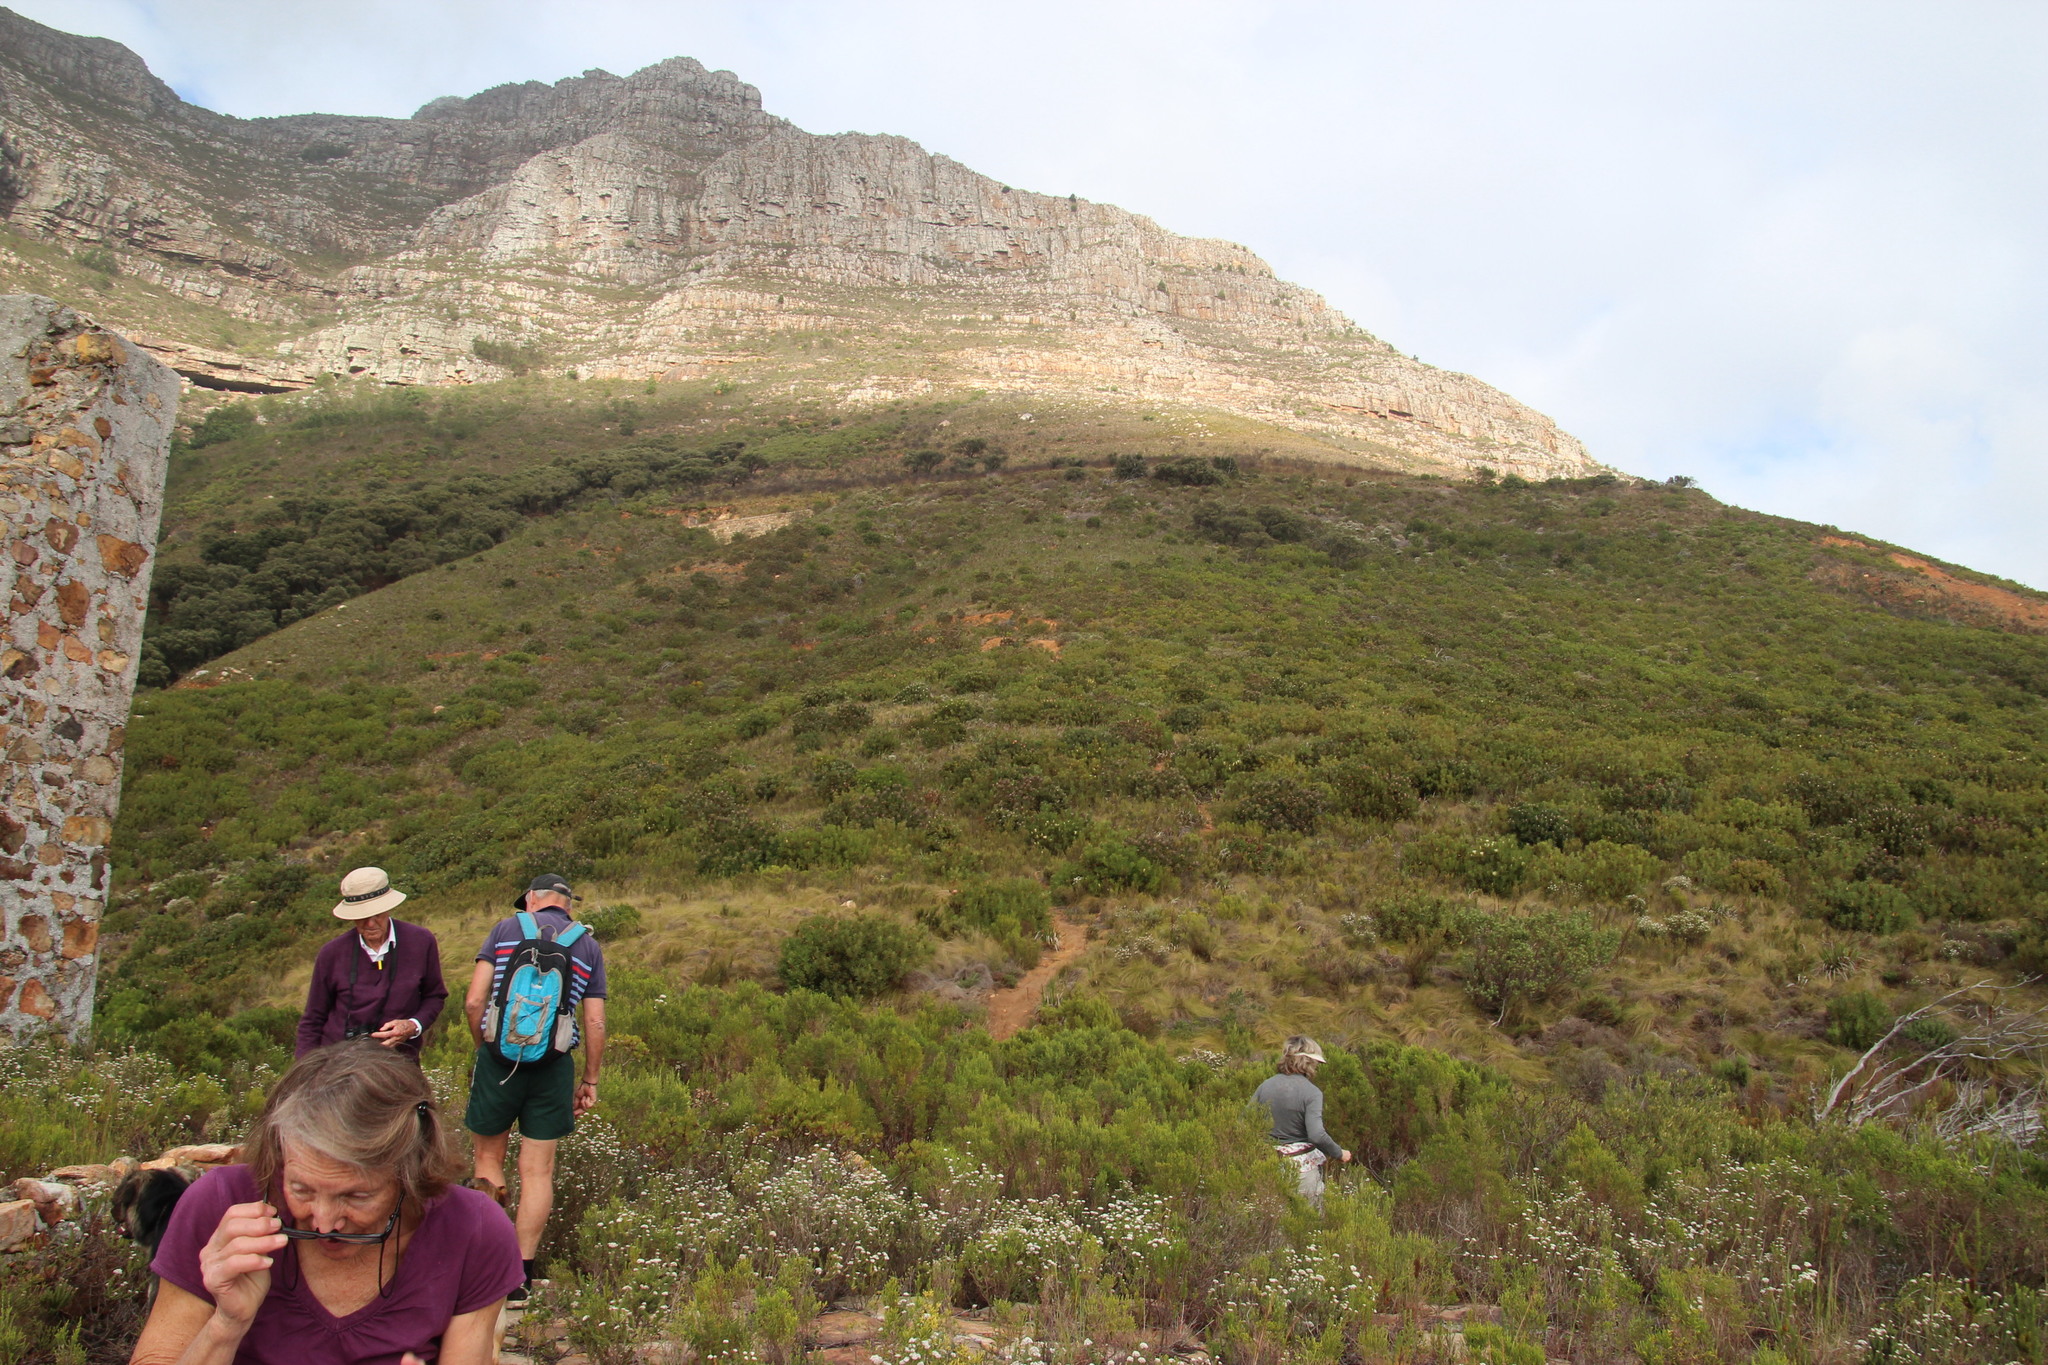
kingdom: Plantae
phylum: Tracheophyta
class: Magnoliopsida
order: Proteales
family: Proteaceae
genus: Protea
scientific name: Protea
